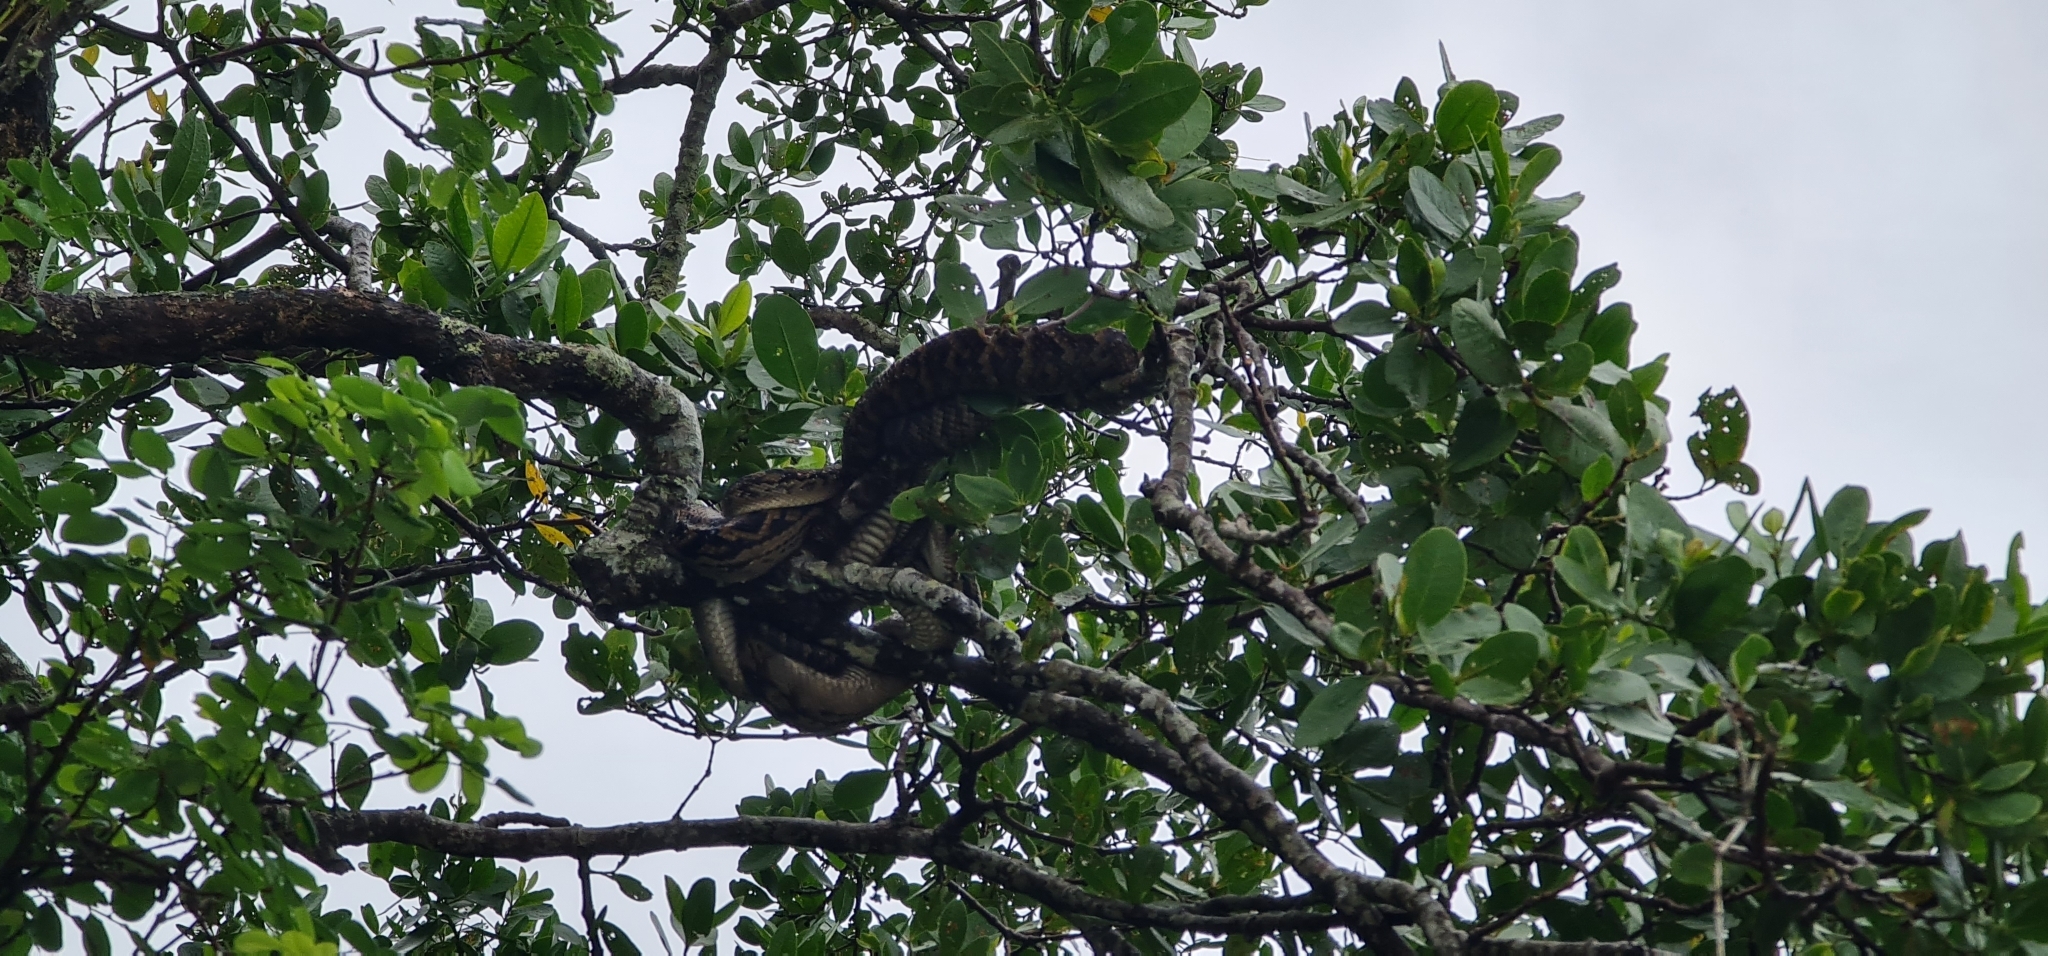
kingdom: Animalia
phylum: Chordata
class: Squamata
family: Pythonidae
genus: Simalia
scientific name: Simalia kinghorni
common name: Scrub python
